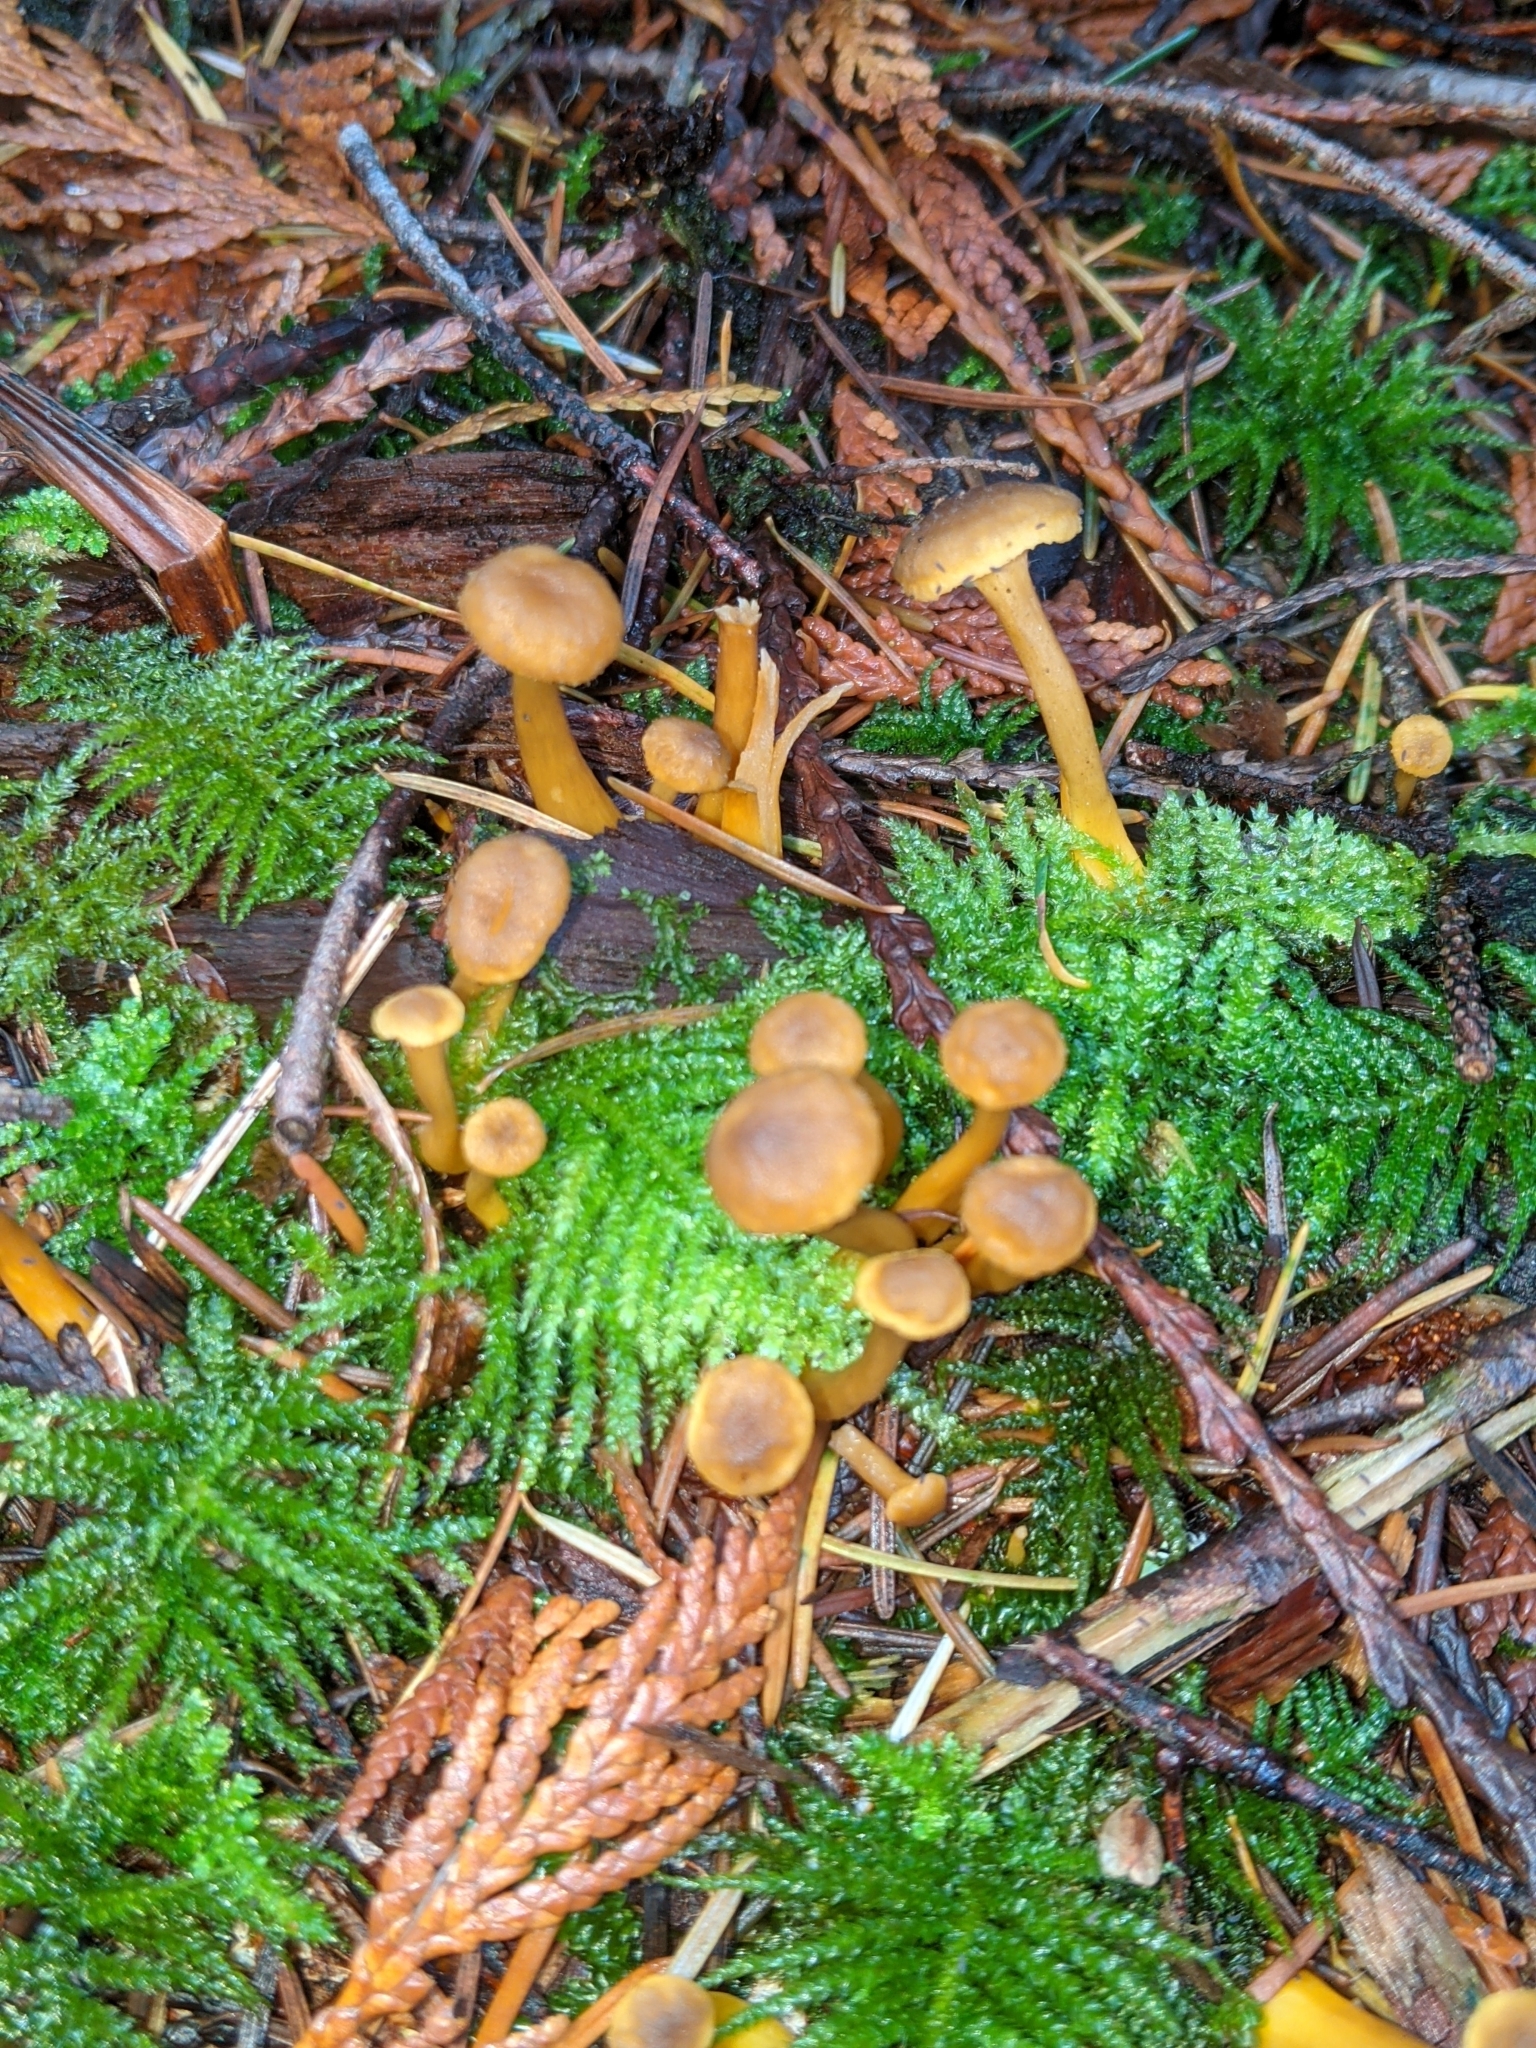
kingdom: Fungi
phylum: Basidiomycota
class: Agaricomycetes
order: Cantharellales
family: Hydnaceae
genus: Craterellus
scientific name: Craterellus tubaeformis
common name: Yellowfoot
